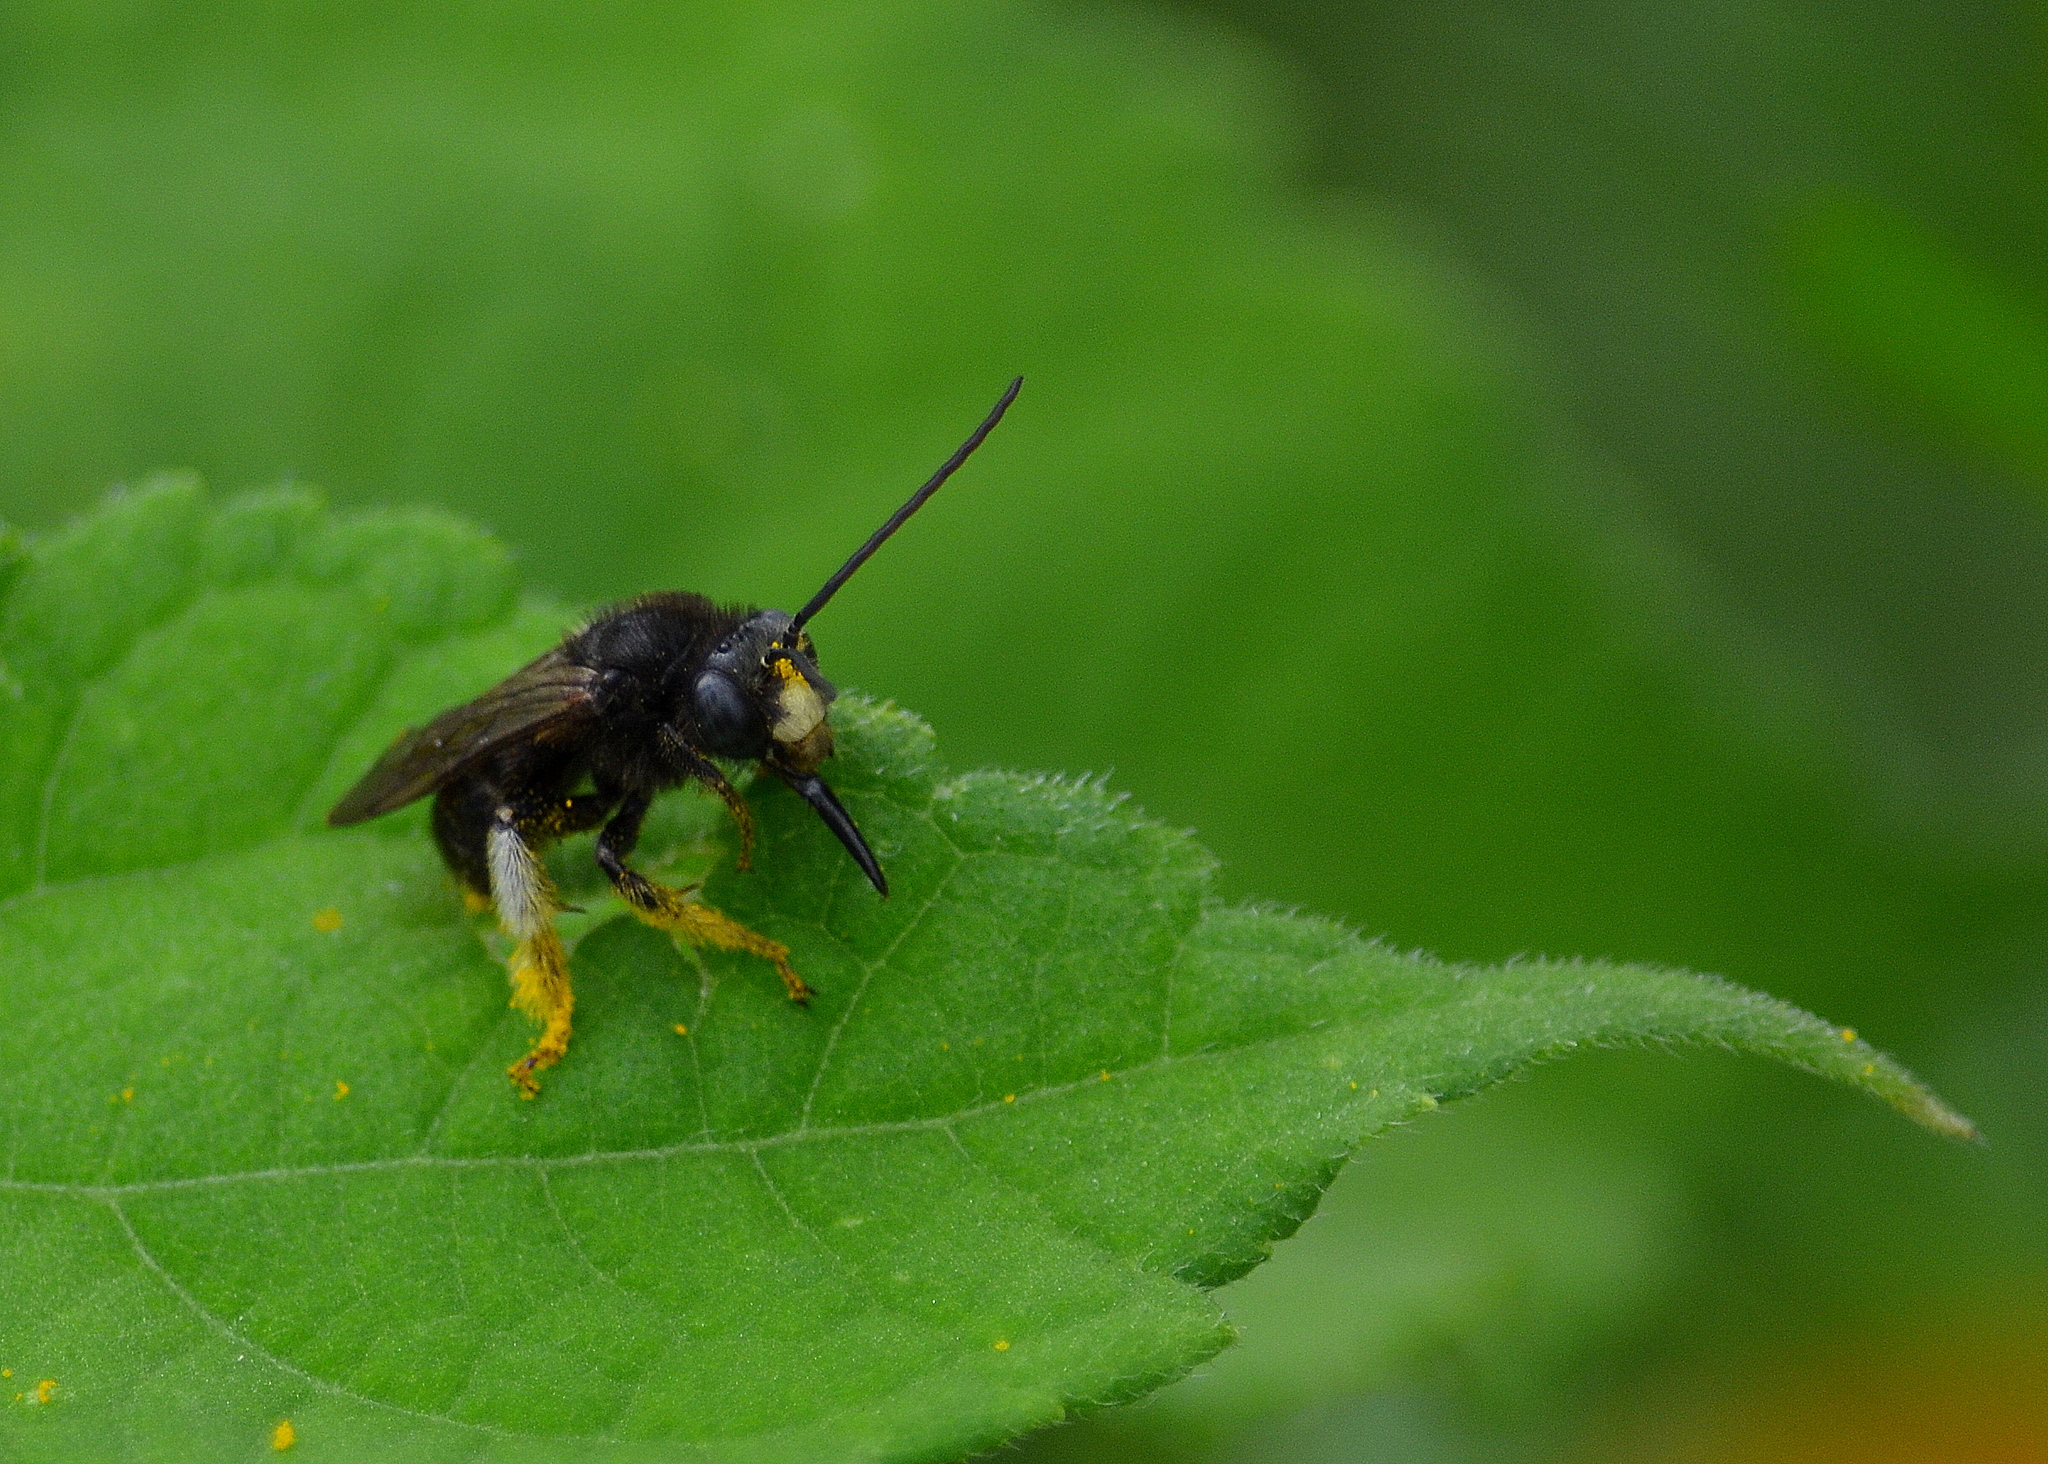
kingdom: Animalia
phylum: Arthropoda
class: Insecta
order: Hymenoptera
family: Apidae
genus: Melissodes
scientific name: Melissodes bimaculatus
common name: Two-spotted long-horned bee
